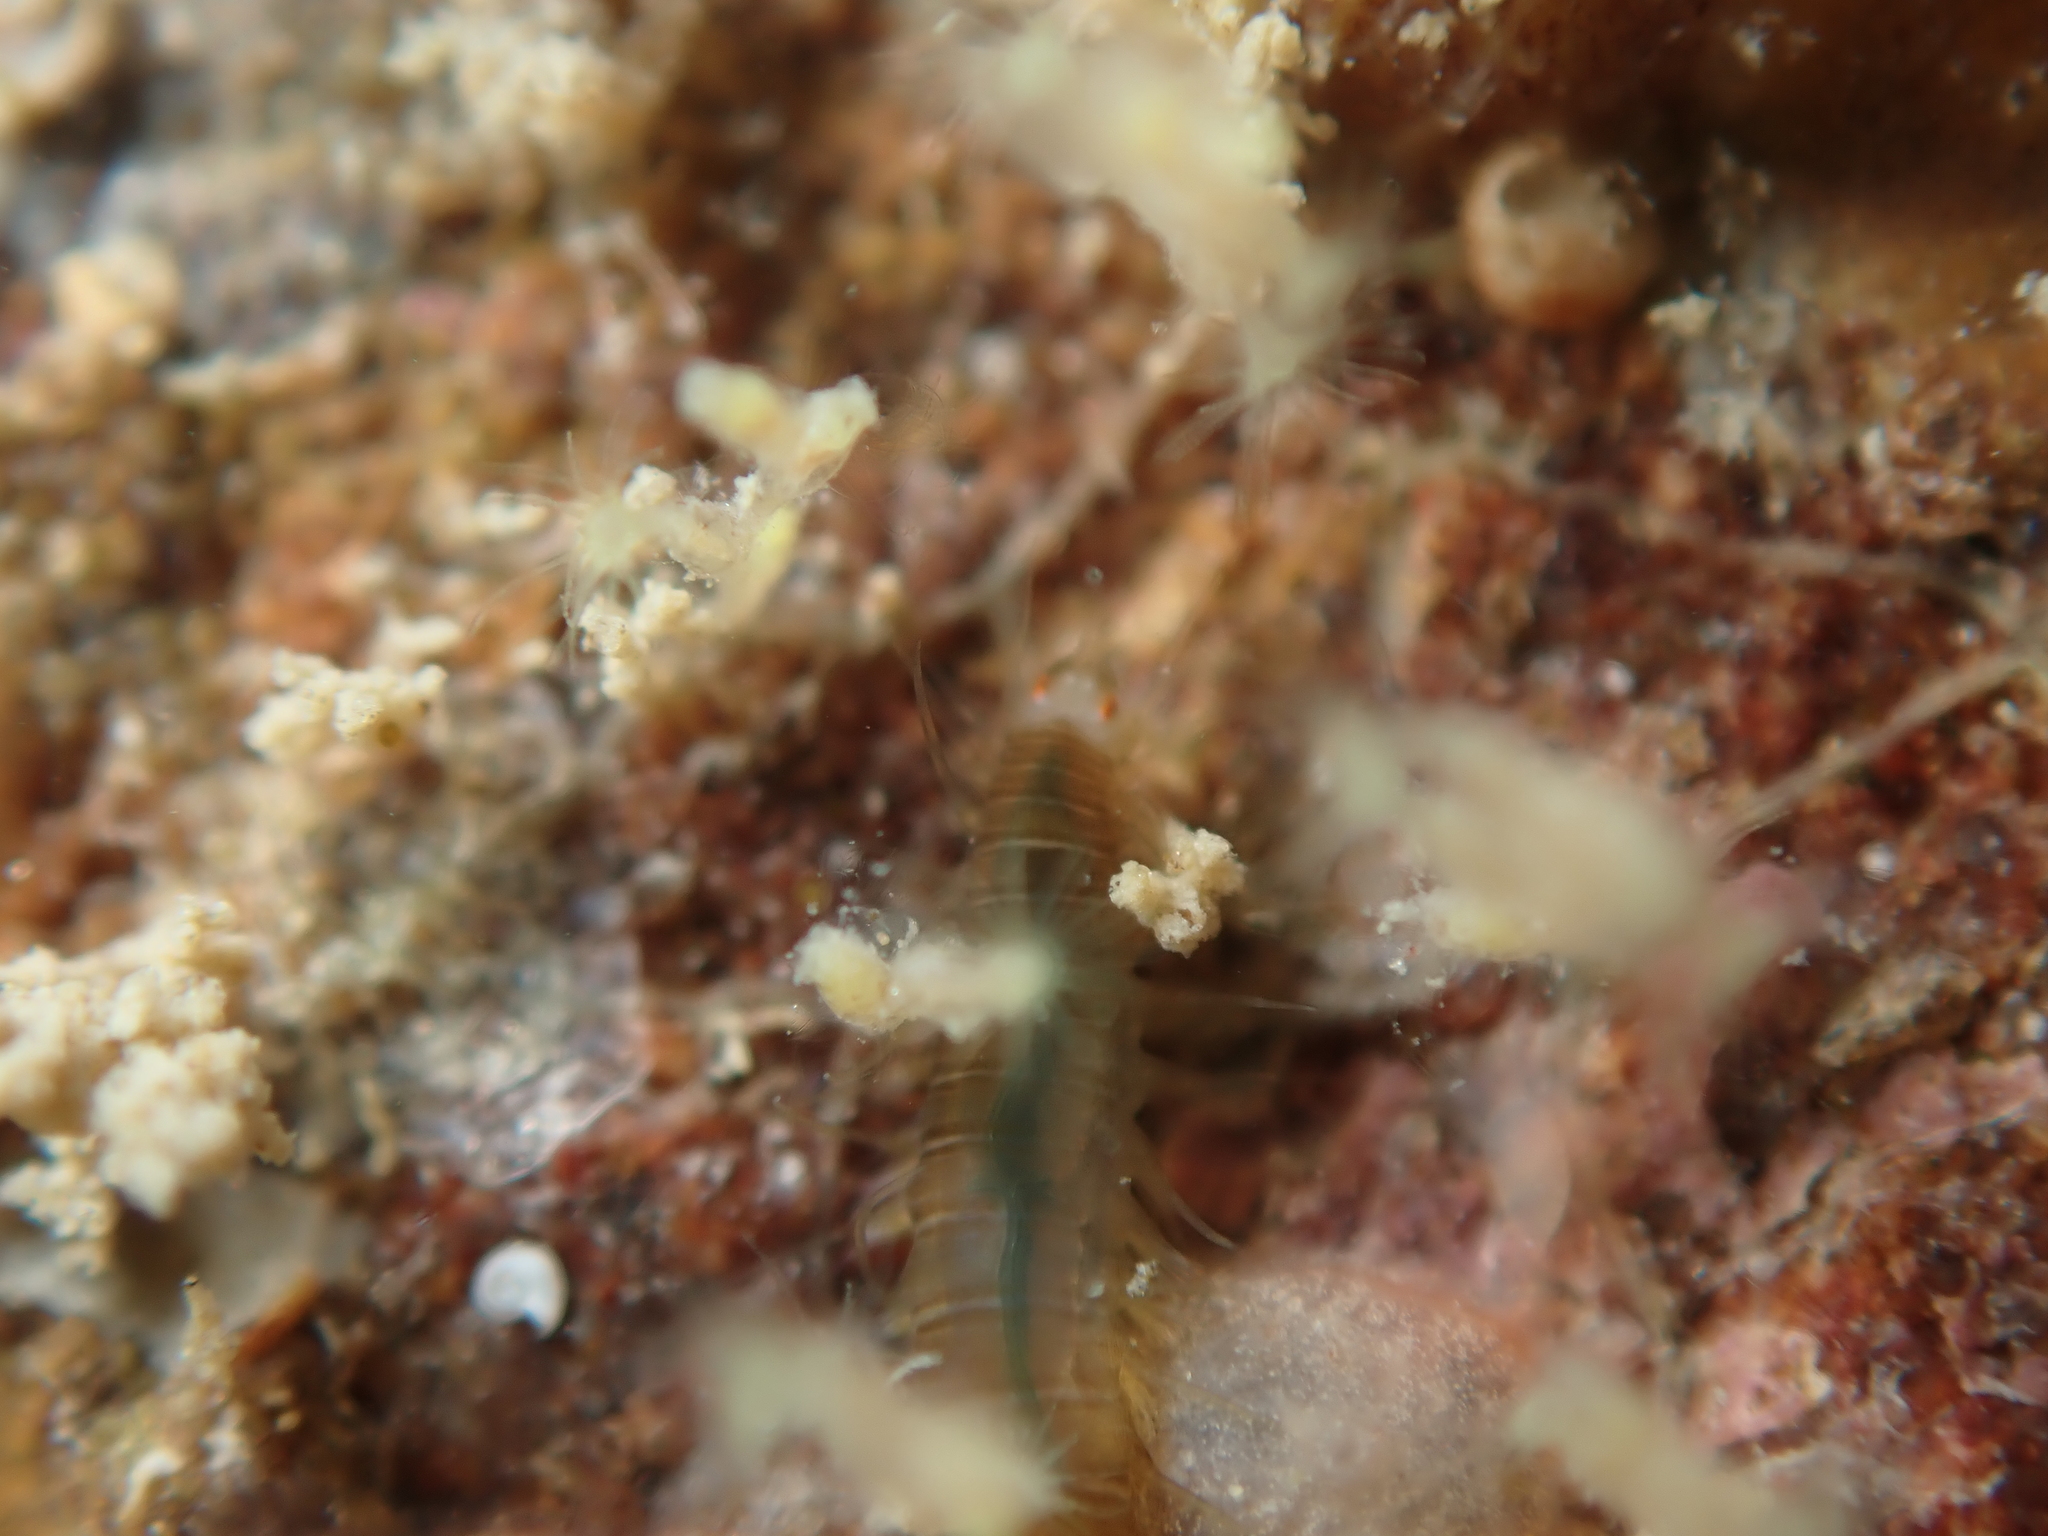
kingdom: Animalia
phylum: Annelida
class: Polychaeta
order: Phyllodocida
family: Hesionidae
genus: Oxydromus
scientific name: Oxydromus angustifrons
